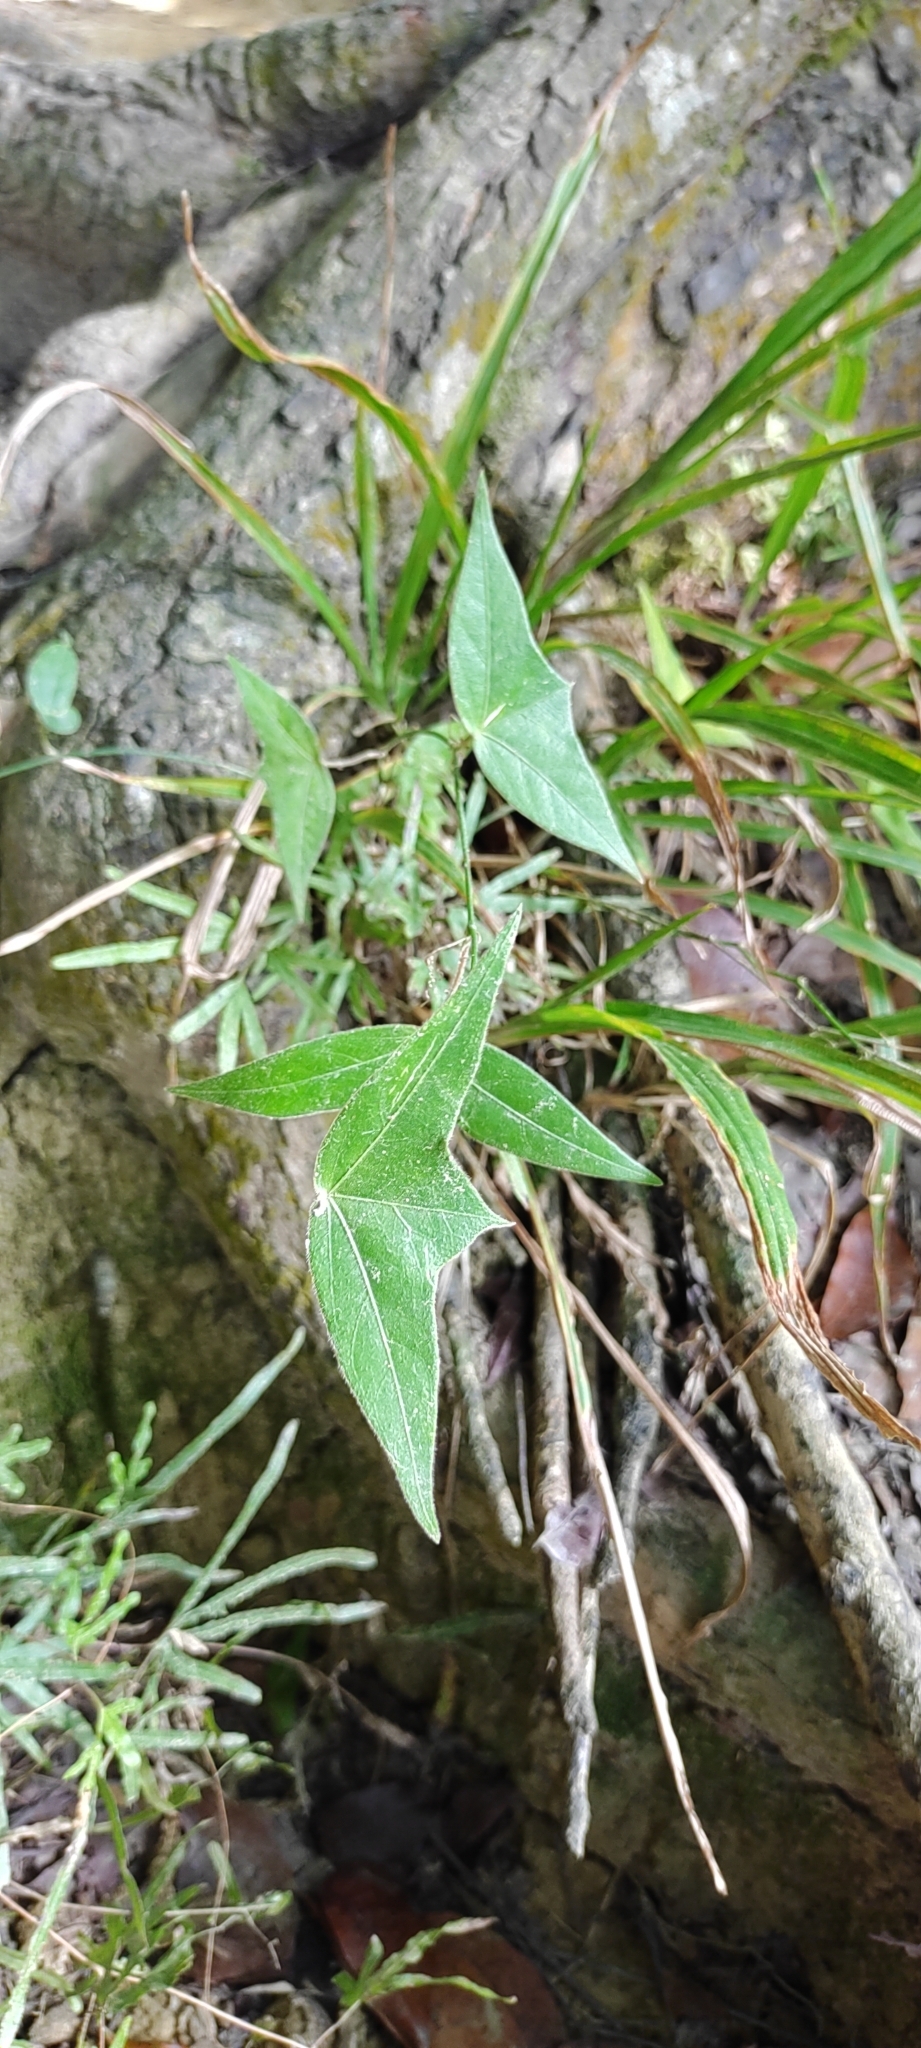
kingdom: Plantae
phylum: Tracheophyta
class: Magnoliopsida
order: Malpighiales
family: Passifloraceae
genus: Passiflora
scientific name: Passiflora suberosa
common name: Wild passionfruit
